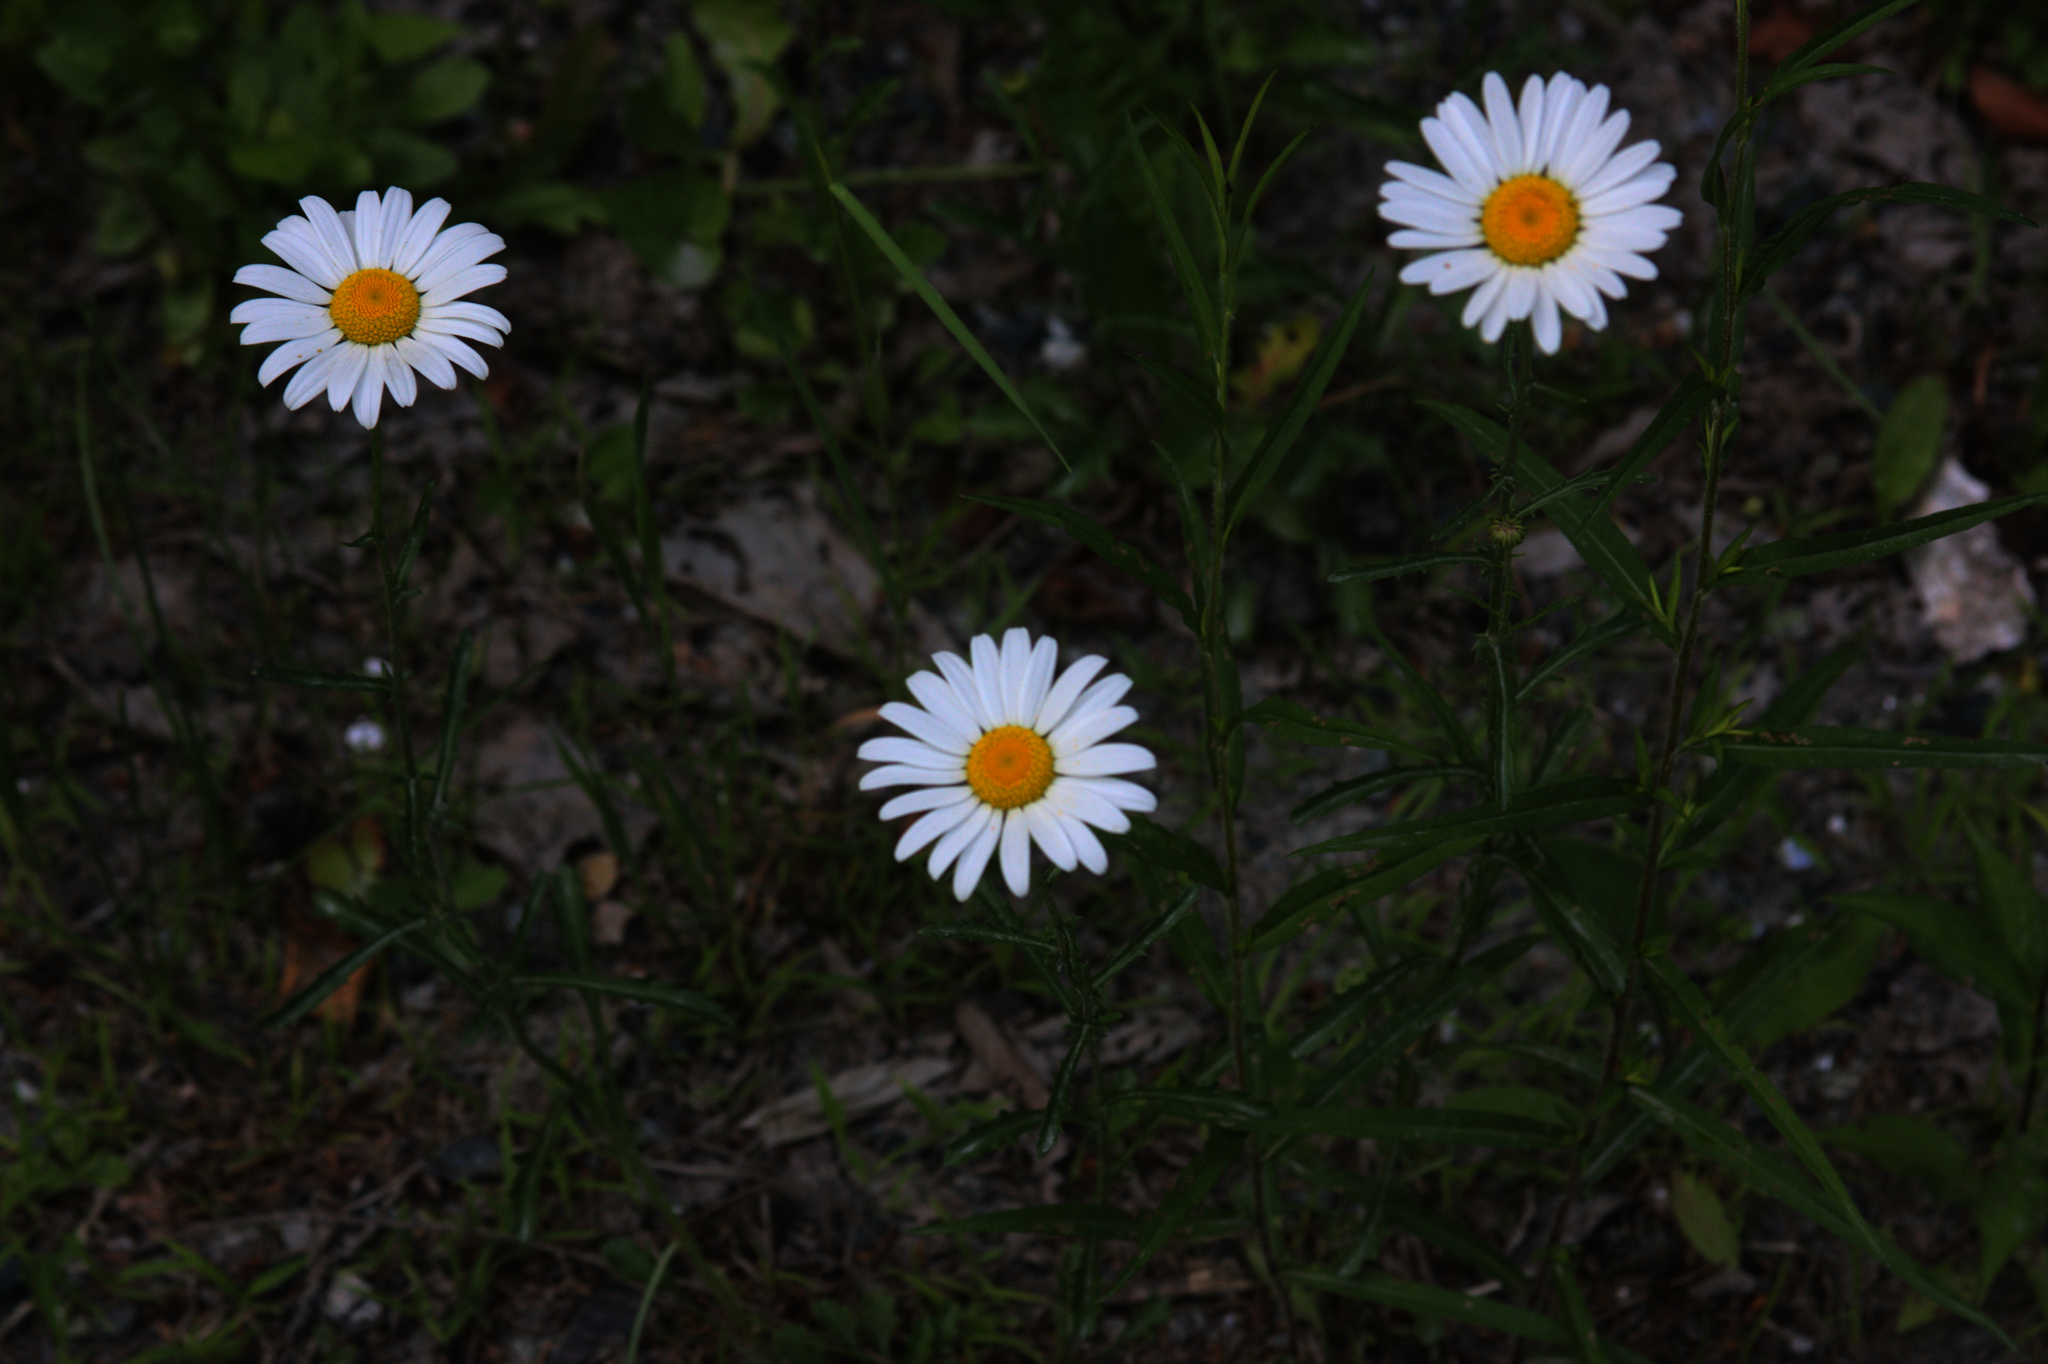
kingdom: Plantae
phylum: Tracheophyta
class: Magnoliopsida
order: Asterales
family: Asteraceae
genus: Leucanthemum
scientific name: Leucanthemum vulgare
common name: Oxeye daisy
